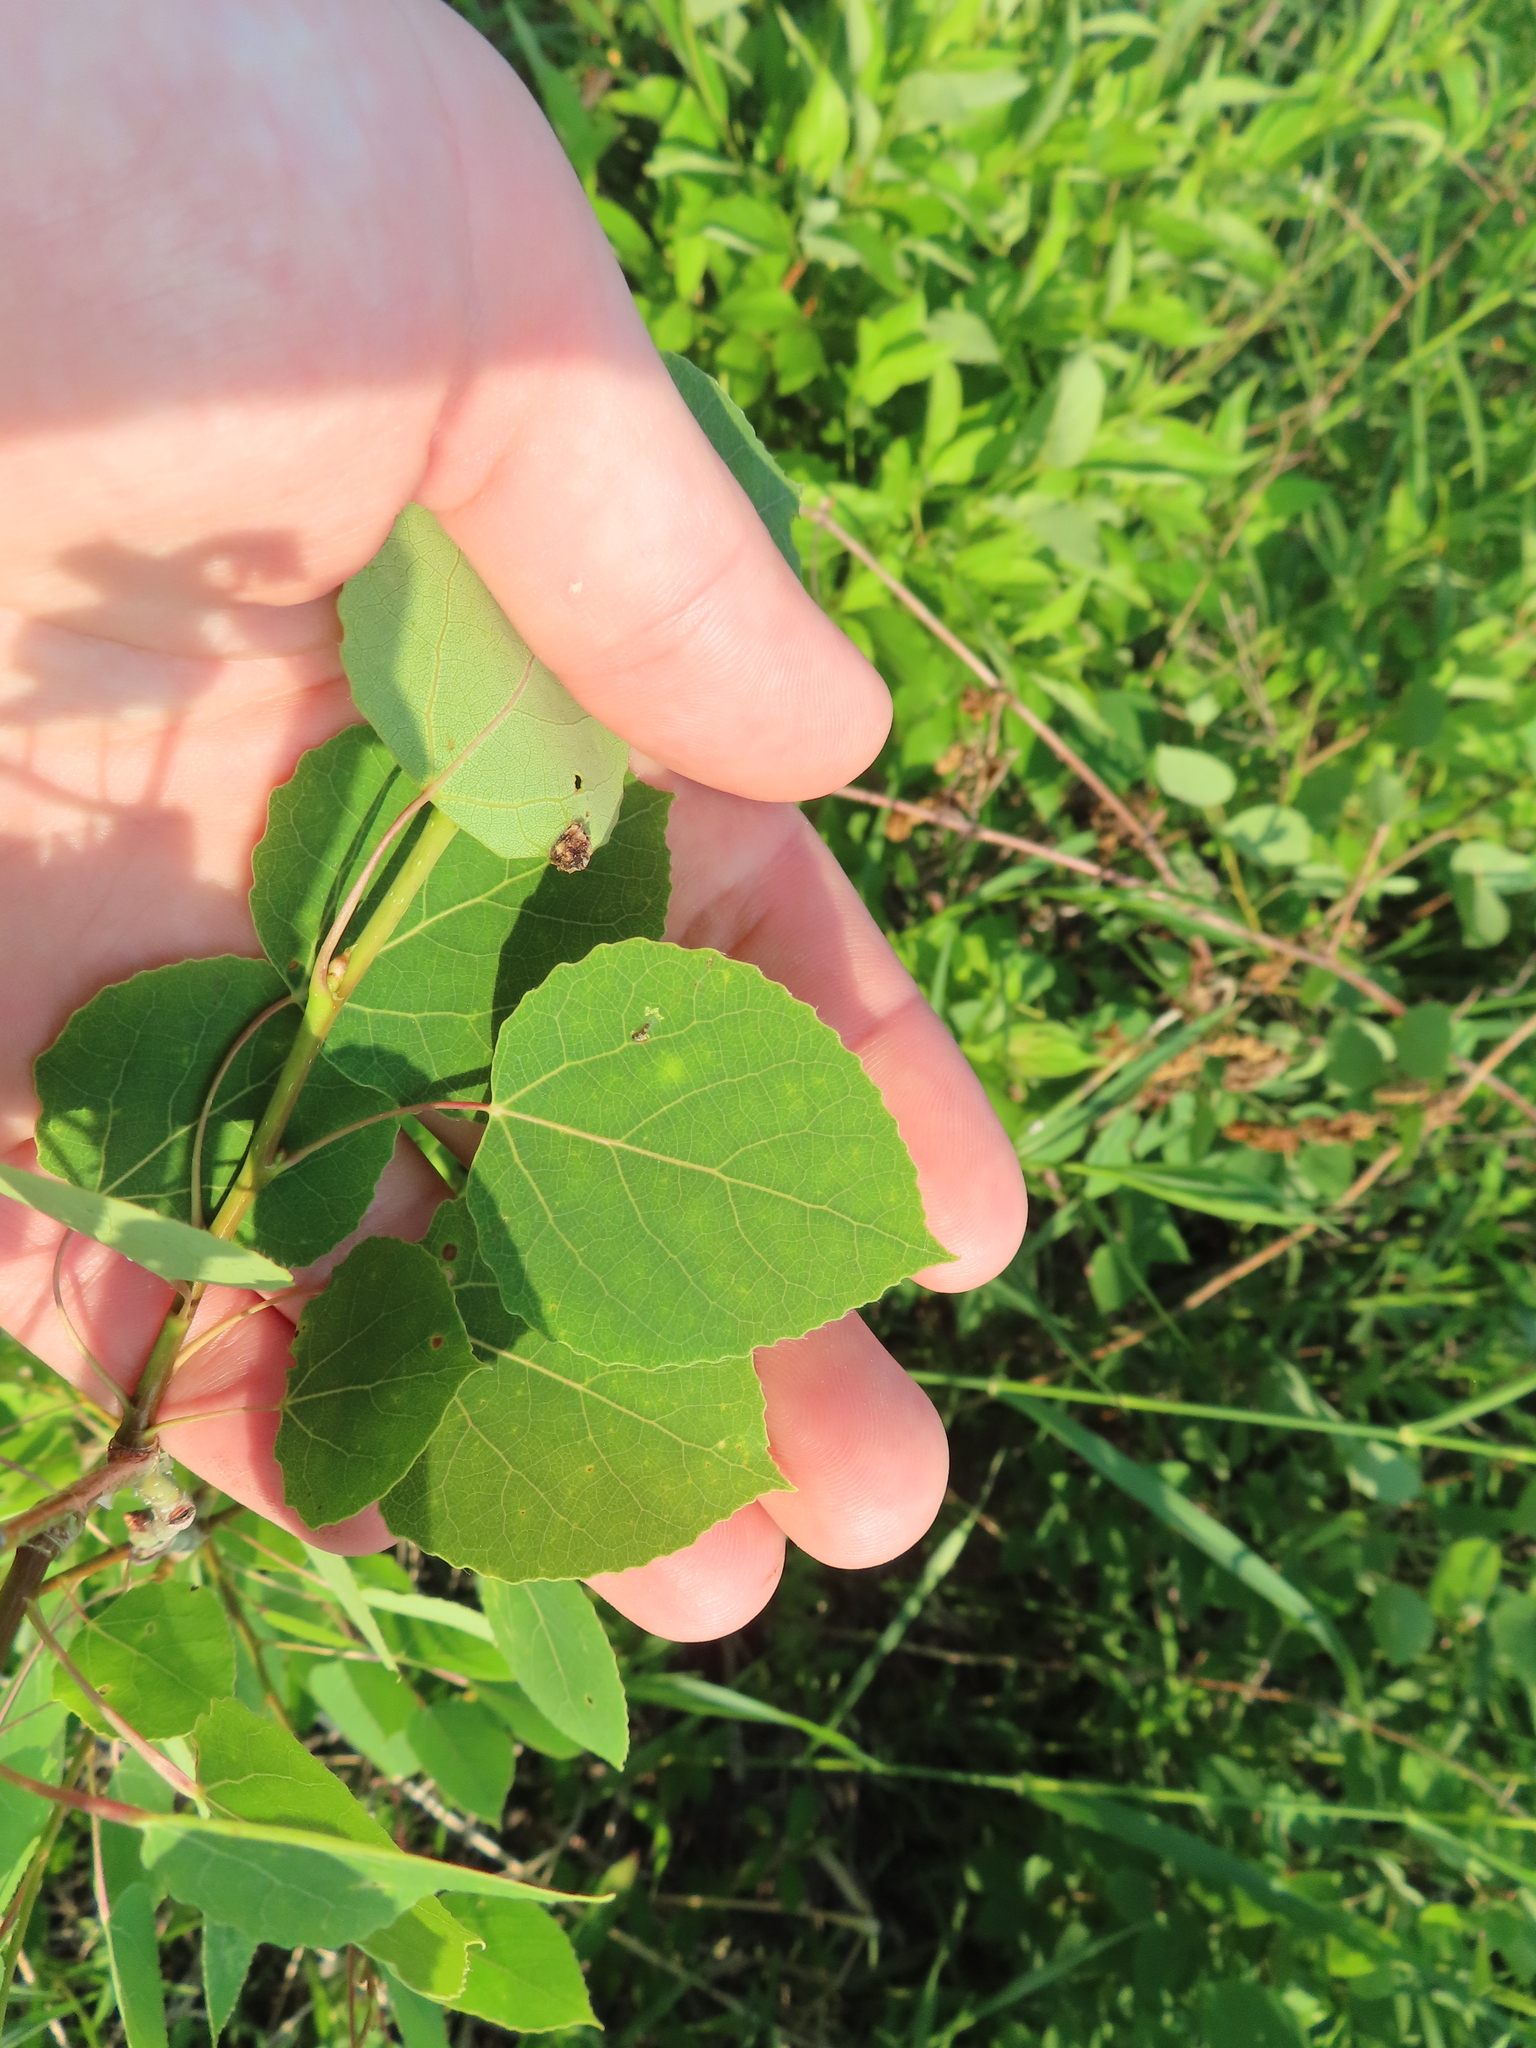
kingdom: Plantae
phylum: Tracheophyta
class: Magnoliopsida
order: Malpighiales
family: Salicaceae
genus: Populus
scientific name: Populus tremuloides
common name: Quaking aspen
